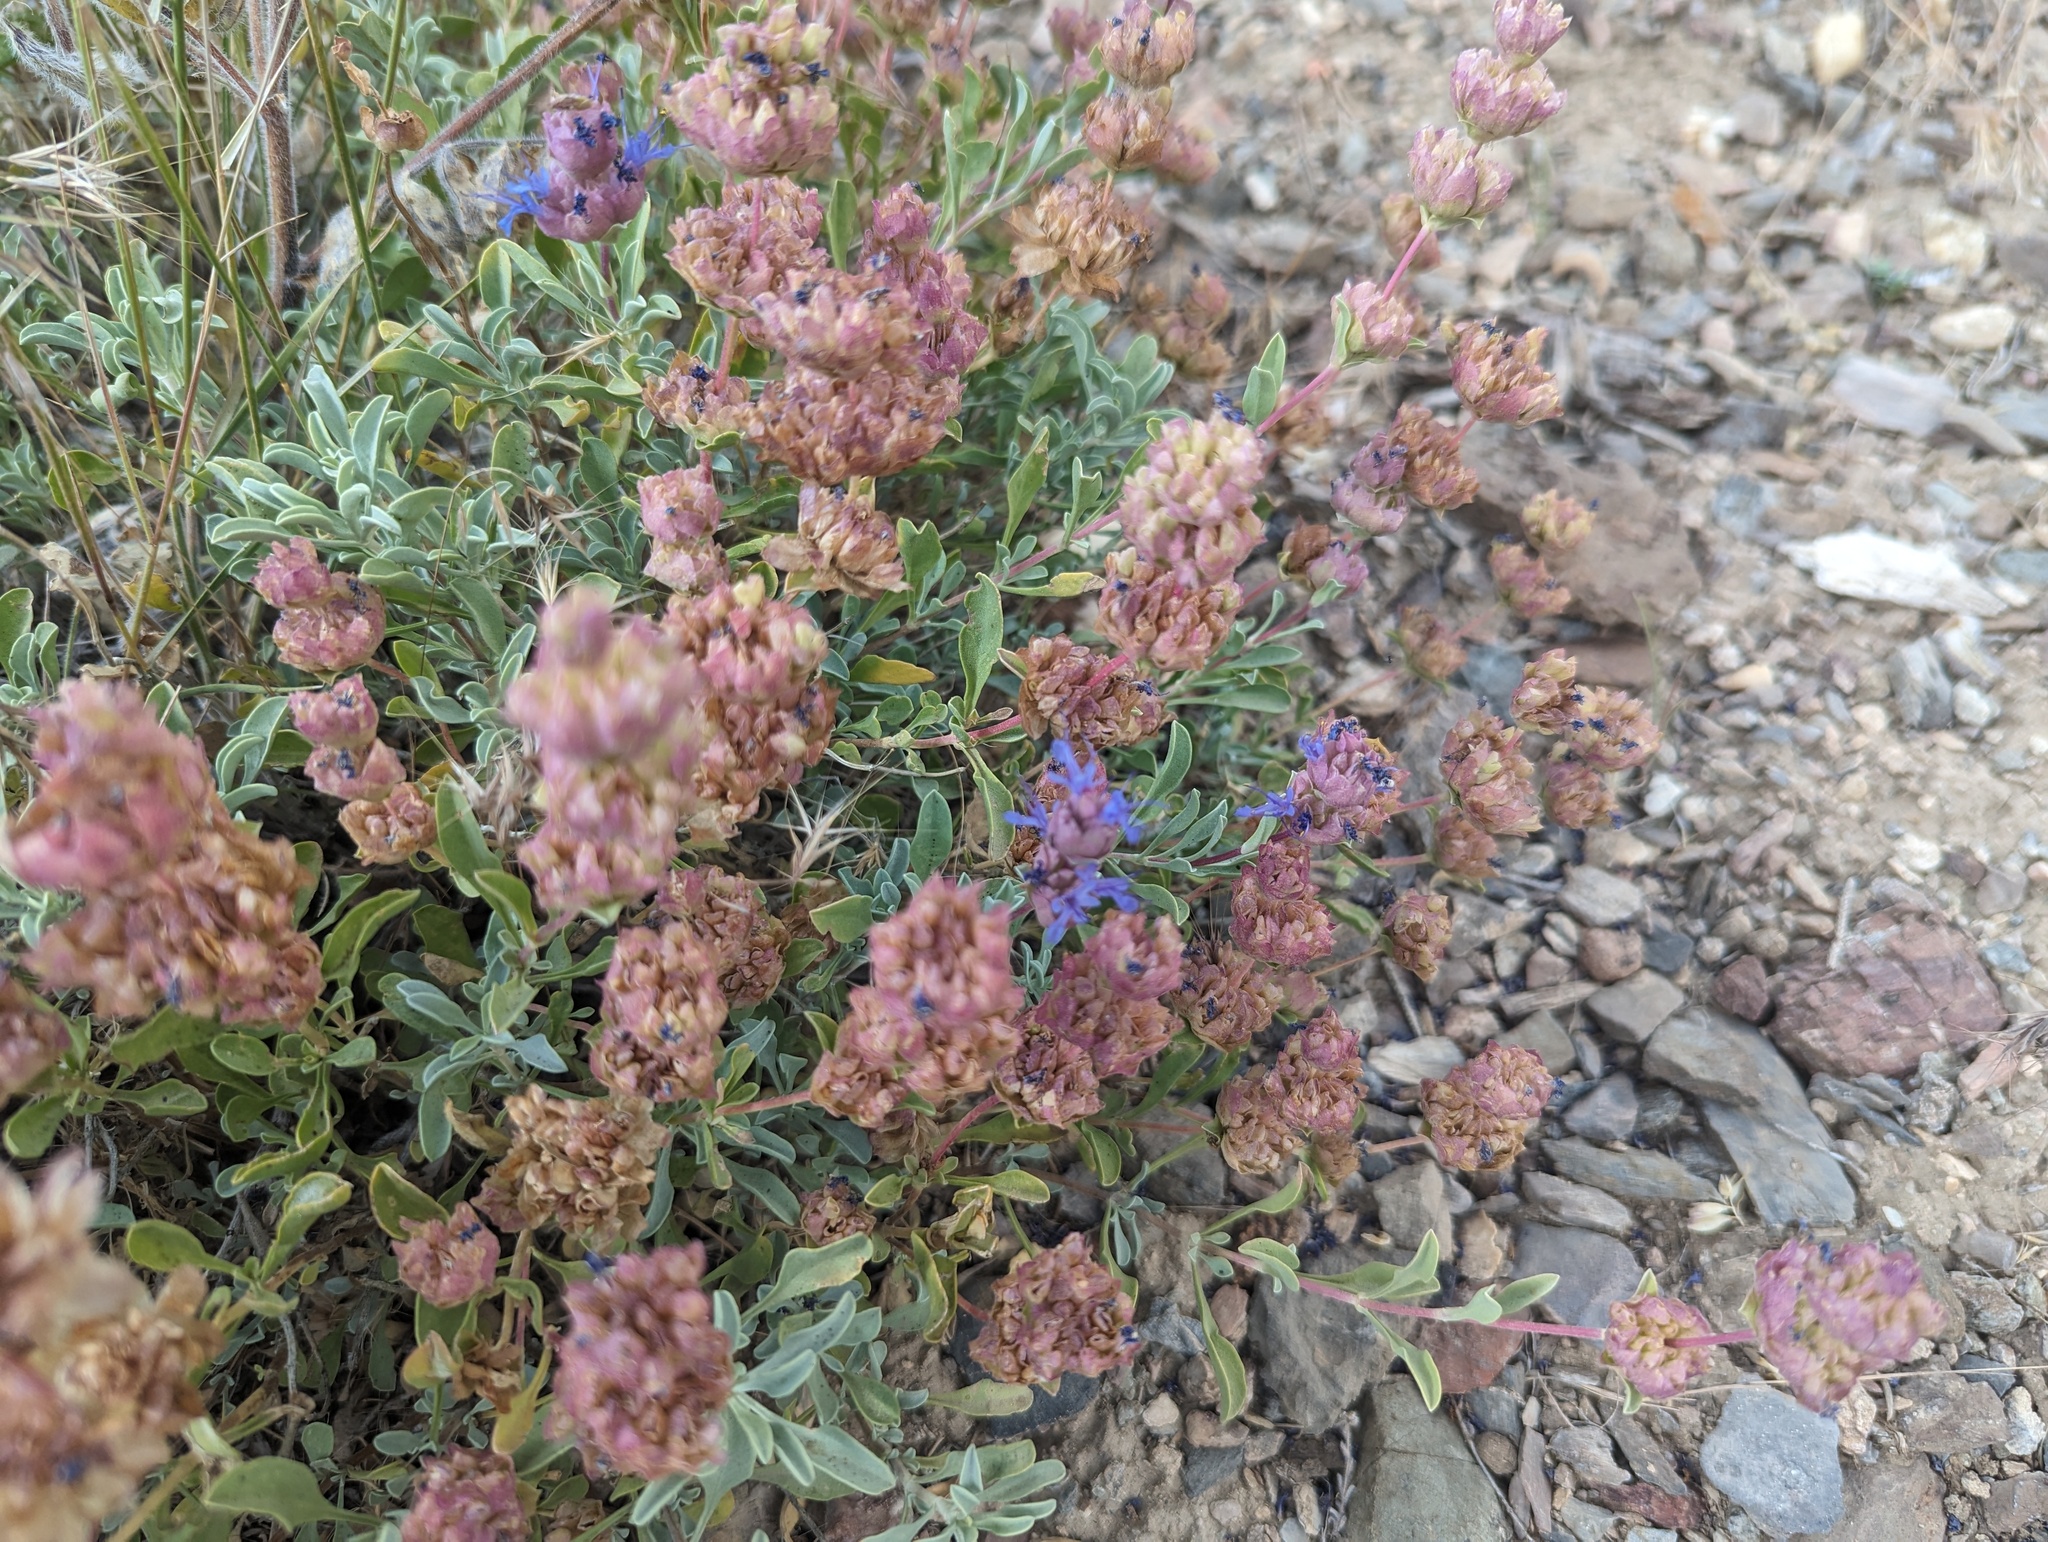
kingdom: Plantae
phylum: Tracheophyta
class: Magnoliopsida
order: Lamiales
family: Lamiaceae
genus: Salvia
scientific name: Salvia dorrii
